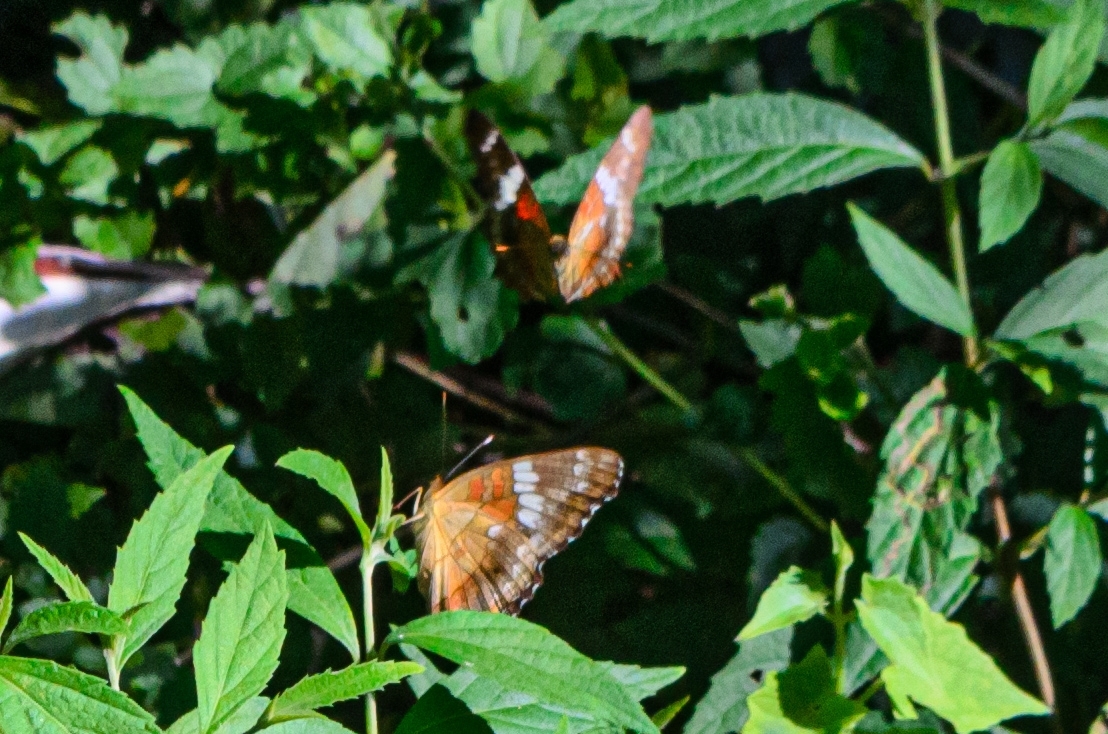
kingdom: Animalia
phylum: Arthropoda
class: Insecta
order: Lepidoptera
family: Nymphalidae
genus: Anartia
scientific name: Anartia amathea
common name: Red peacock
